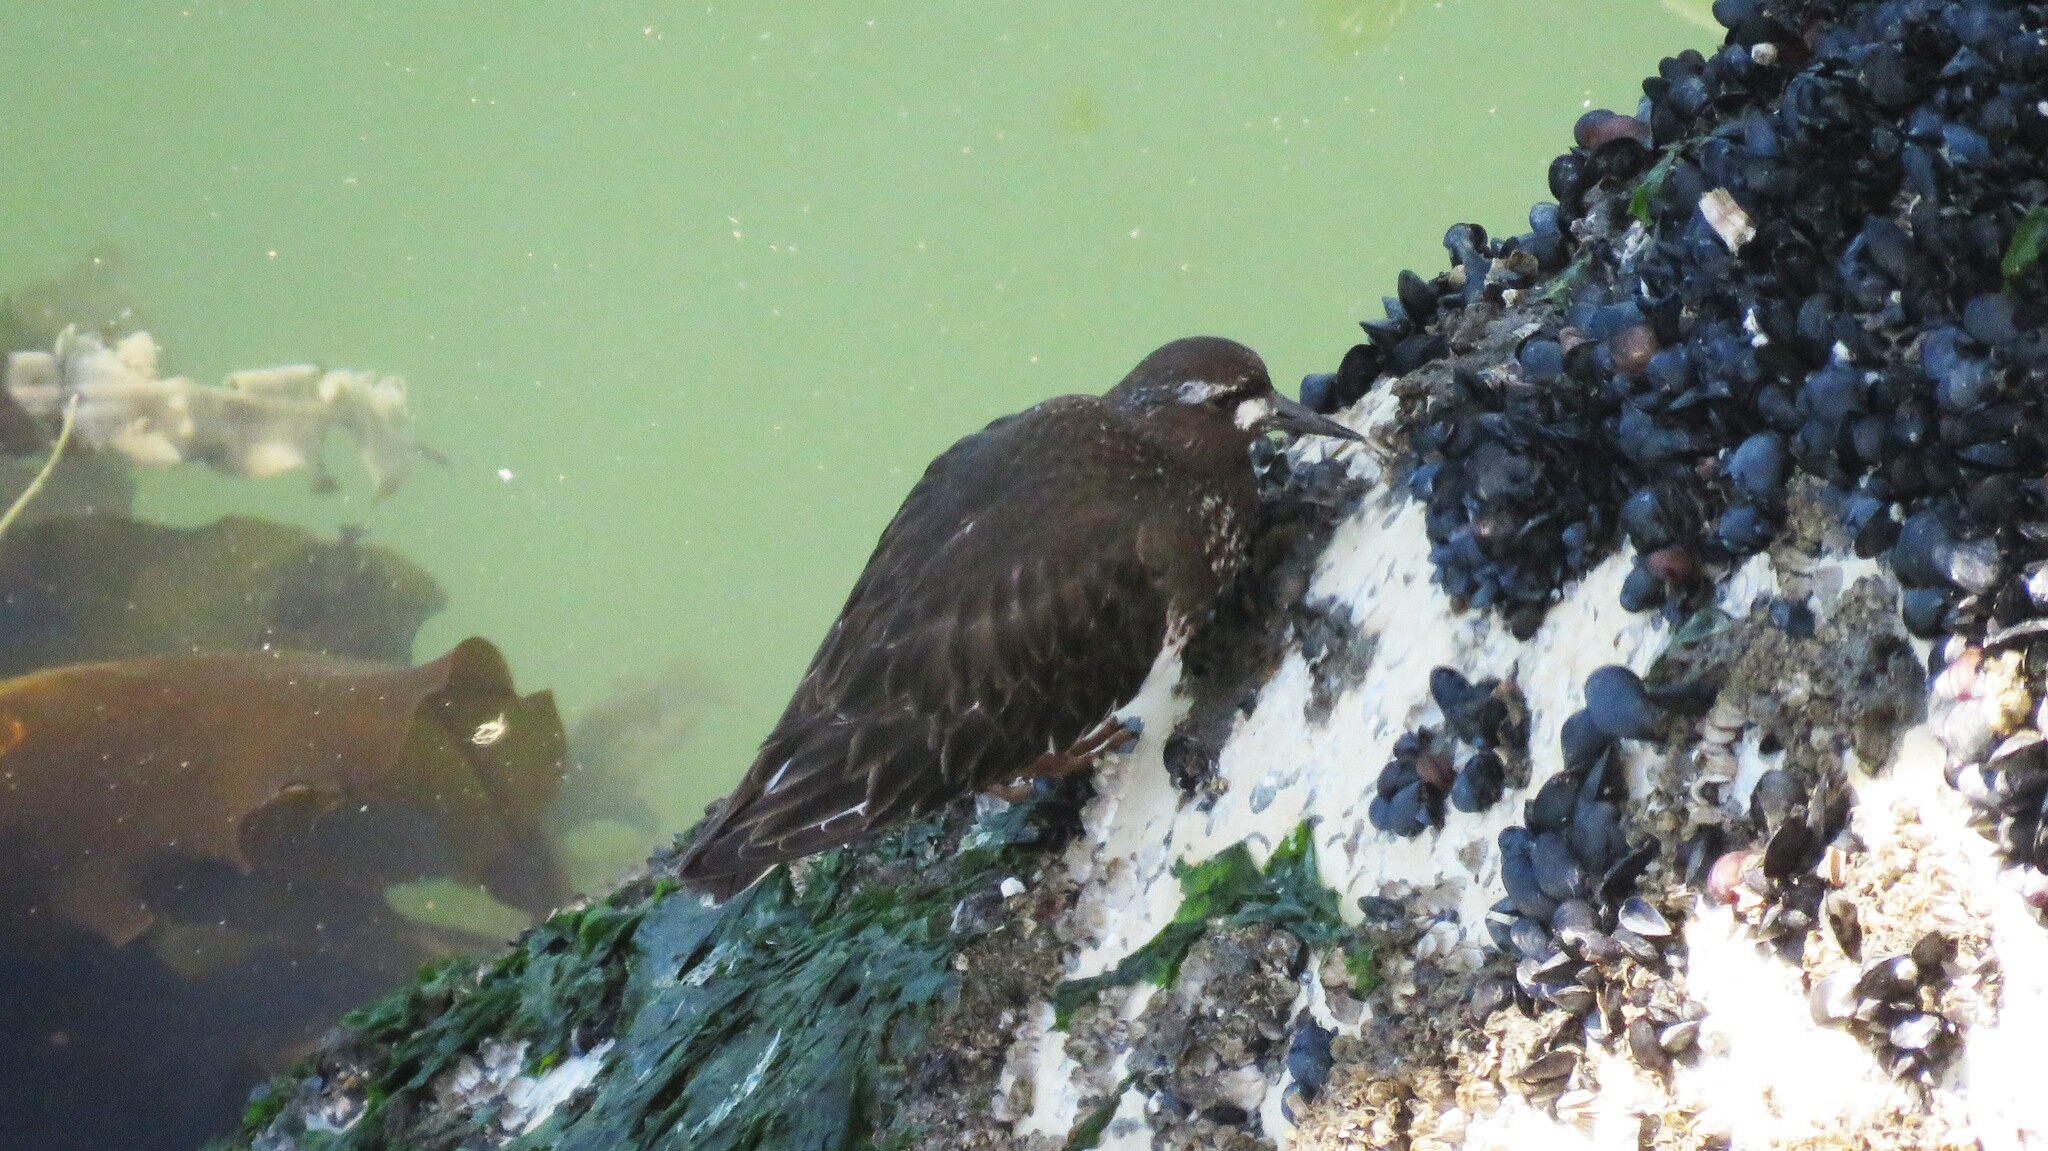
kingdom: Animalia
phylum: Chordata
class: Aves
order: Charadriiformes
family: Scolopacidae
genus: Arenaria
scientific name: Arenaria melanocephala
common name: Black turnstone
